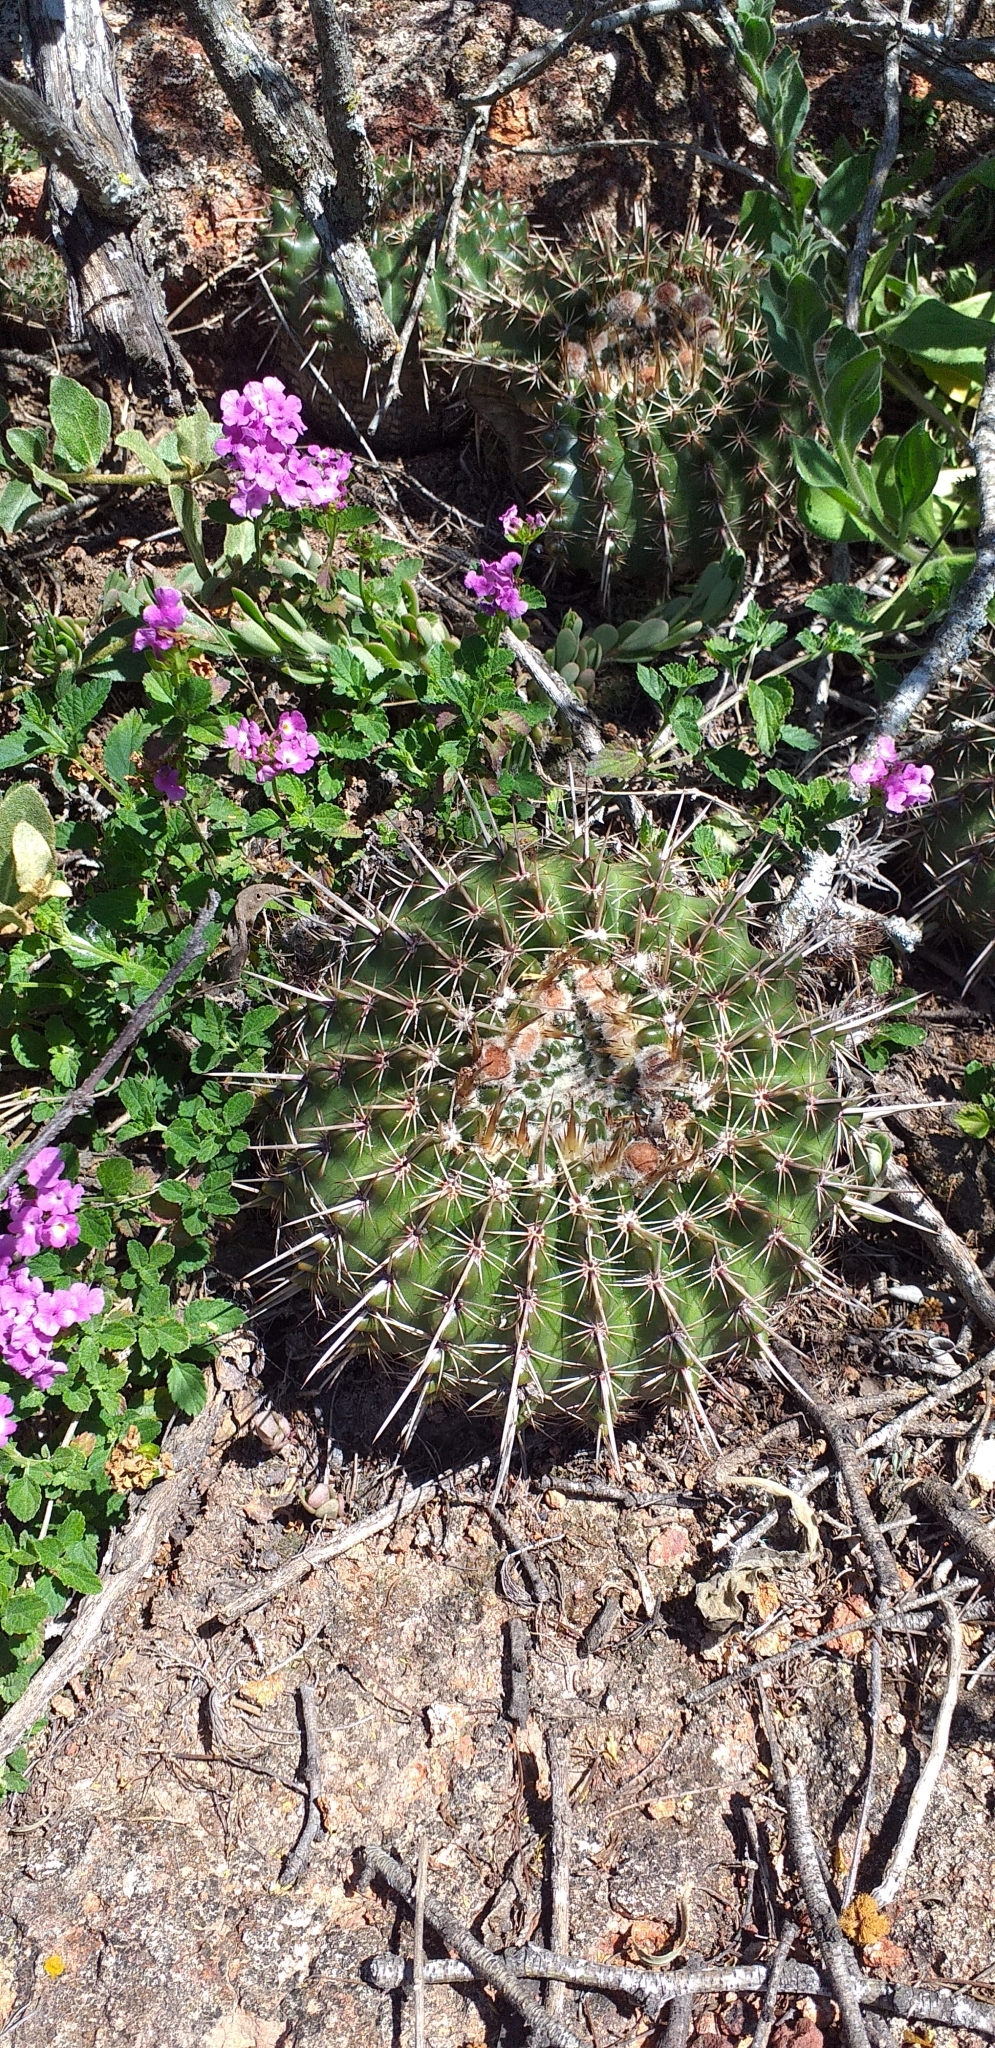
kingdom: Plantae
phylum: Tracheophyta
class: Magnoliopsida
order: Caryophyllales
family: Cactaceae
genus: Parodia
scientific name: Parodia mammulosa
